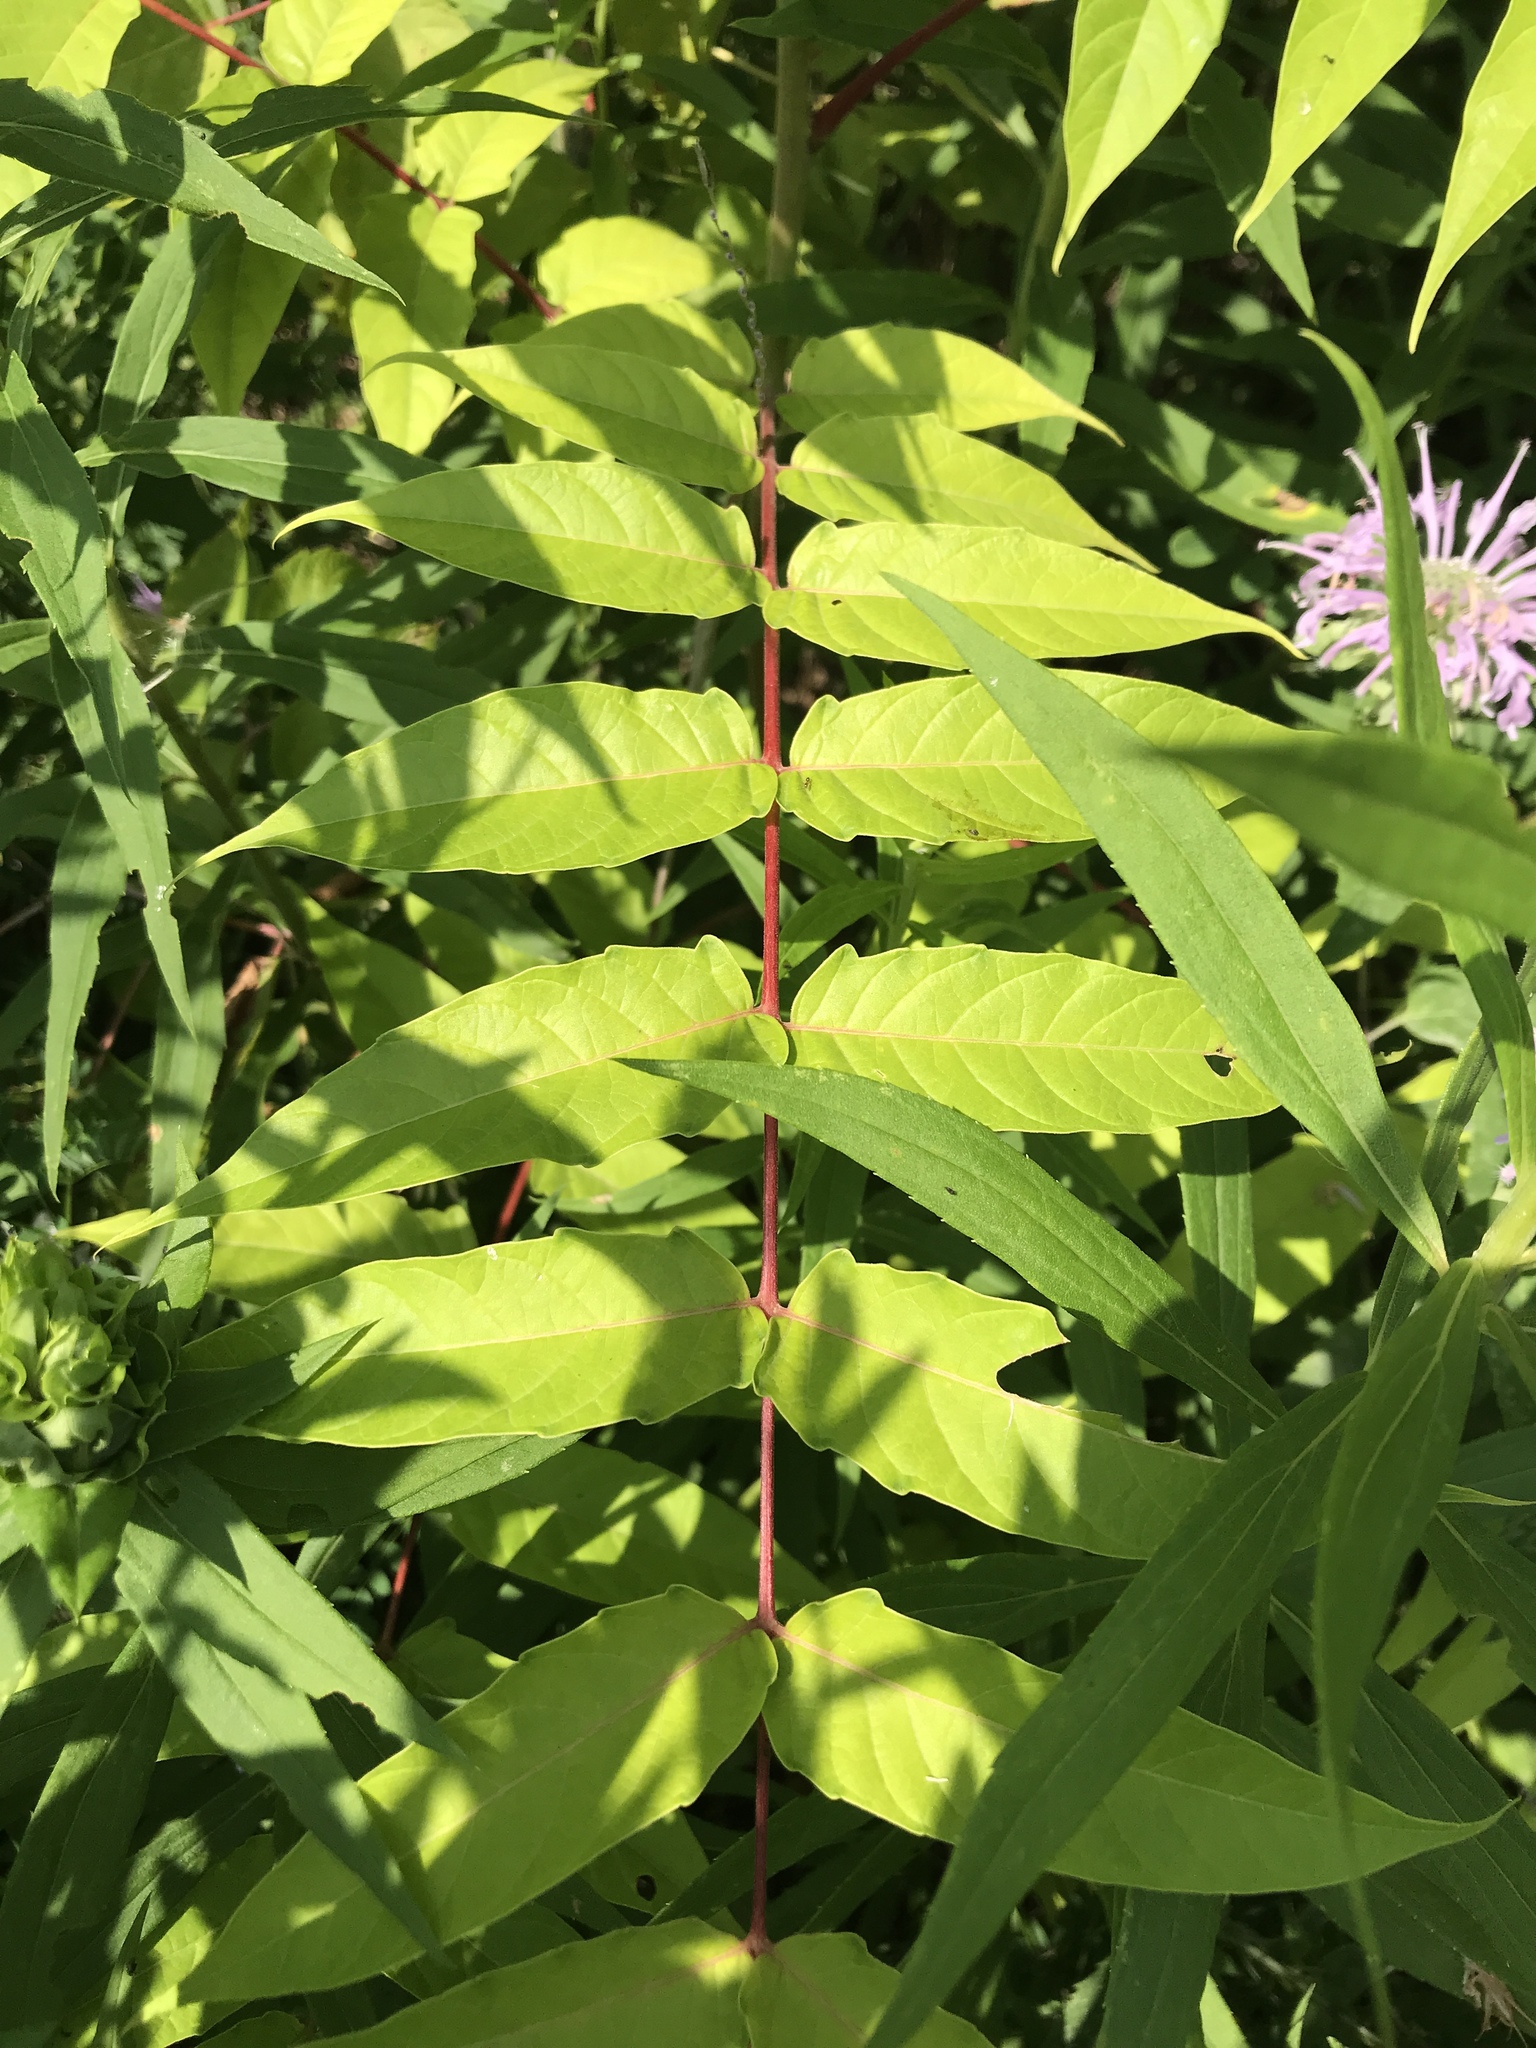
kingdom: Plantae
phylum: Tracheophyta
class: Magnoliopsida
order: Sapindales
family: Simaroubaceae
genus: Ailanthus
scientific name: Ailanthus altissima
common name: Tree-of-heaven
